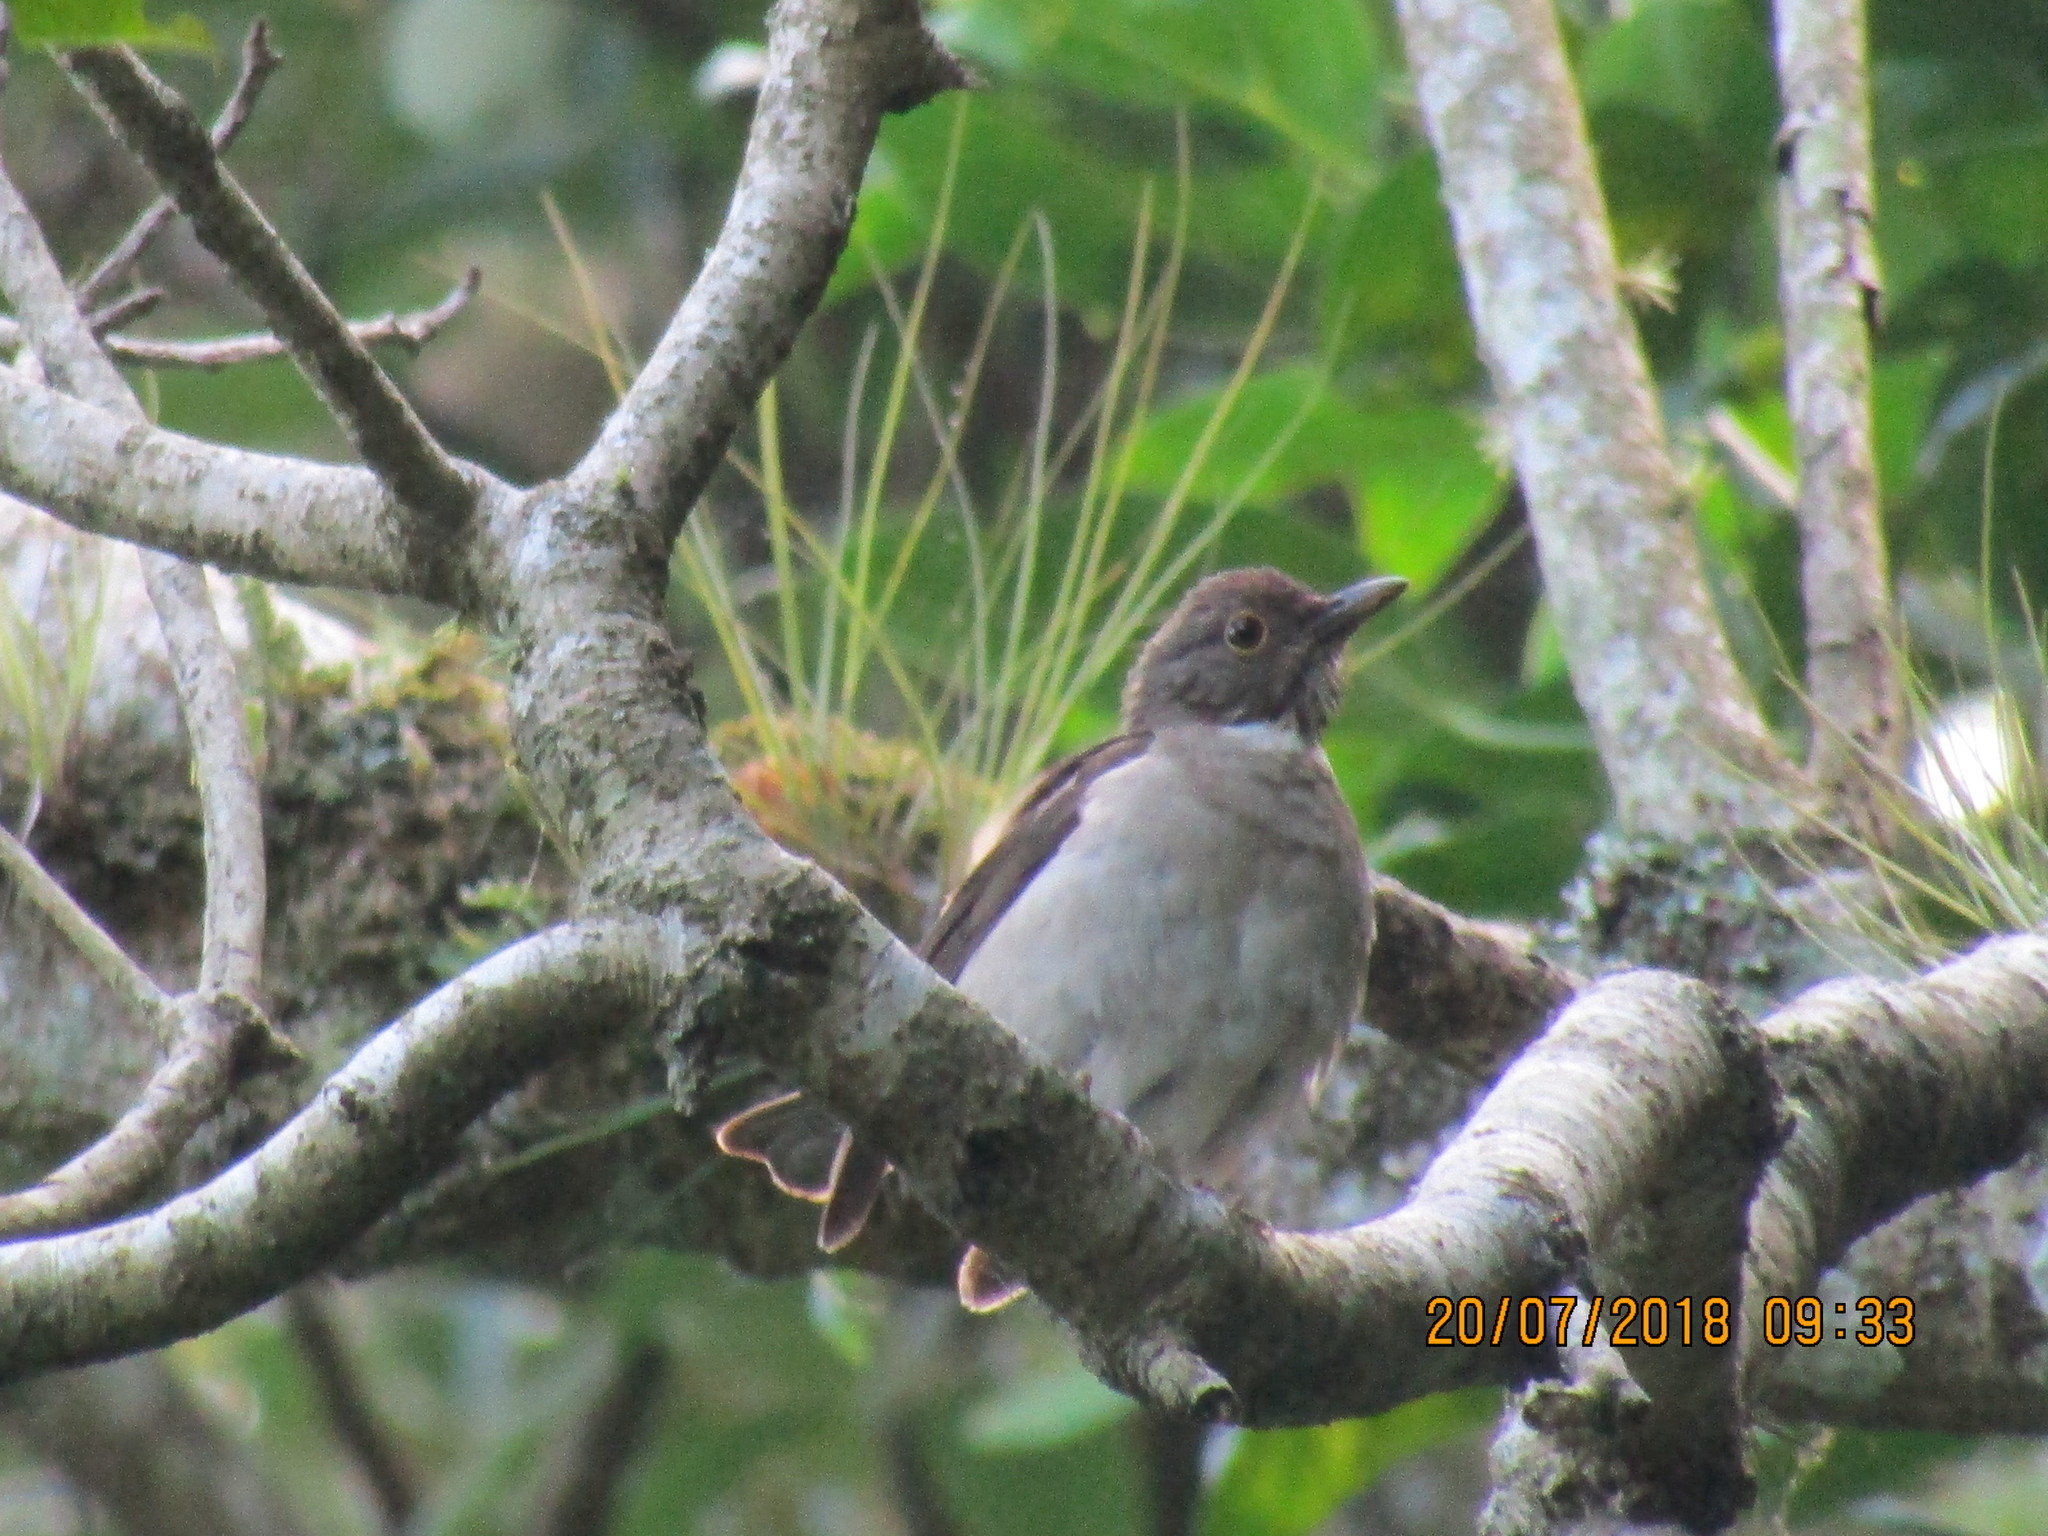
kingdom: Animalia
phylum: Chordata
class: Aves
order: Passeriformes
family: Turdidae
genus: Turdus
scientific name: Turdus assimilis
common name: White-throated thrush
